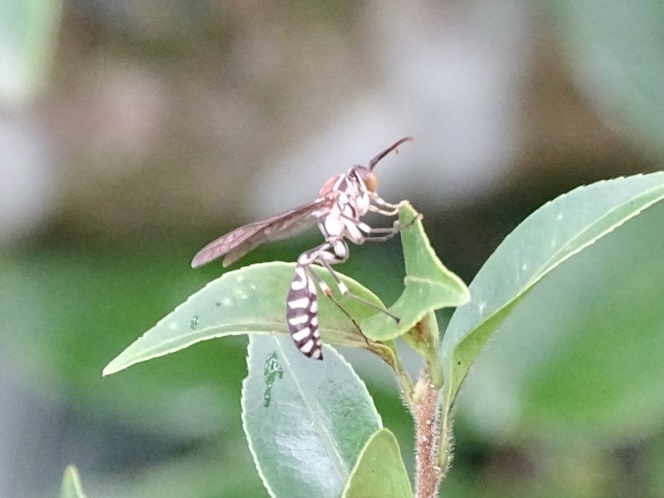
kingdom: Animalia
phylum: Arthropoda
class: Insecta
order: Hymenoptera
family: Vespidae
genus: Parapolybia
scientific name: Parapolybia nodosa
